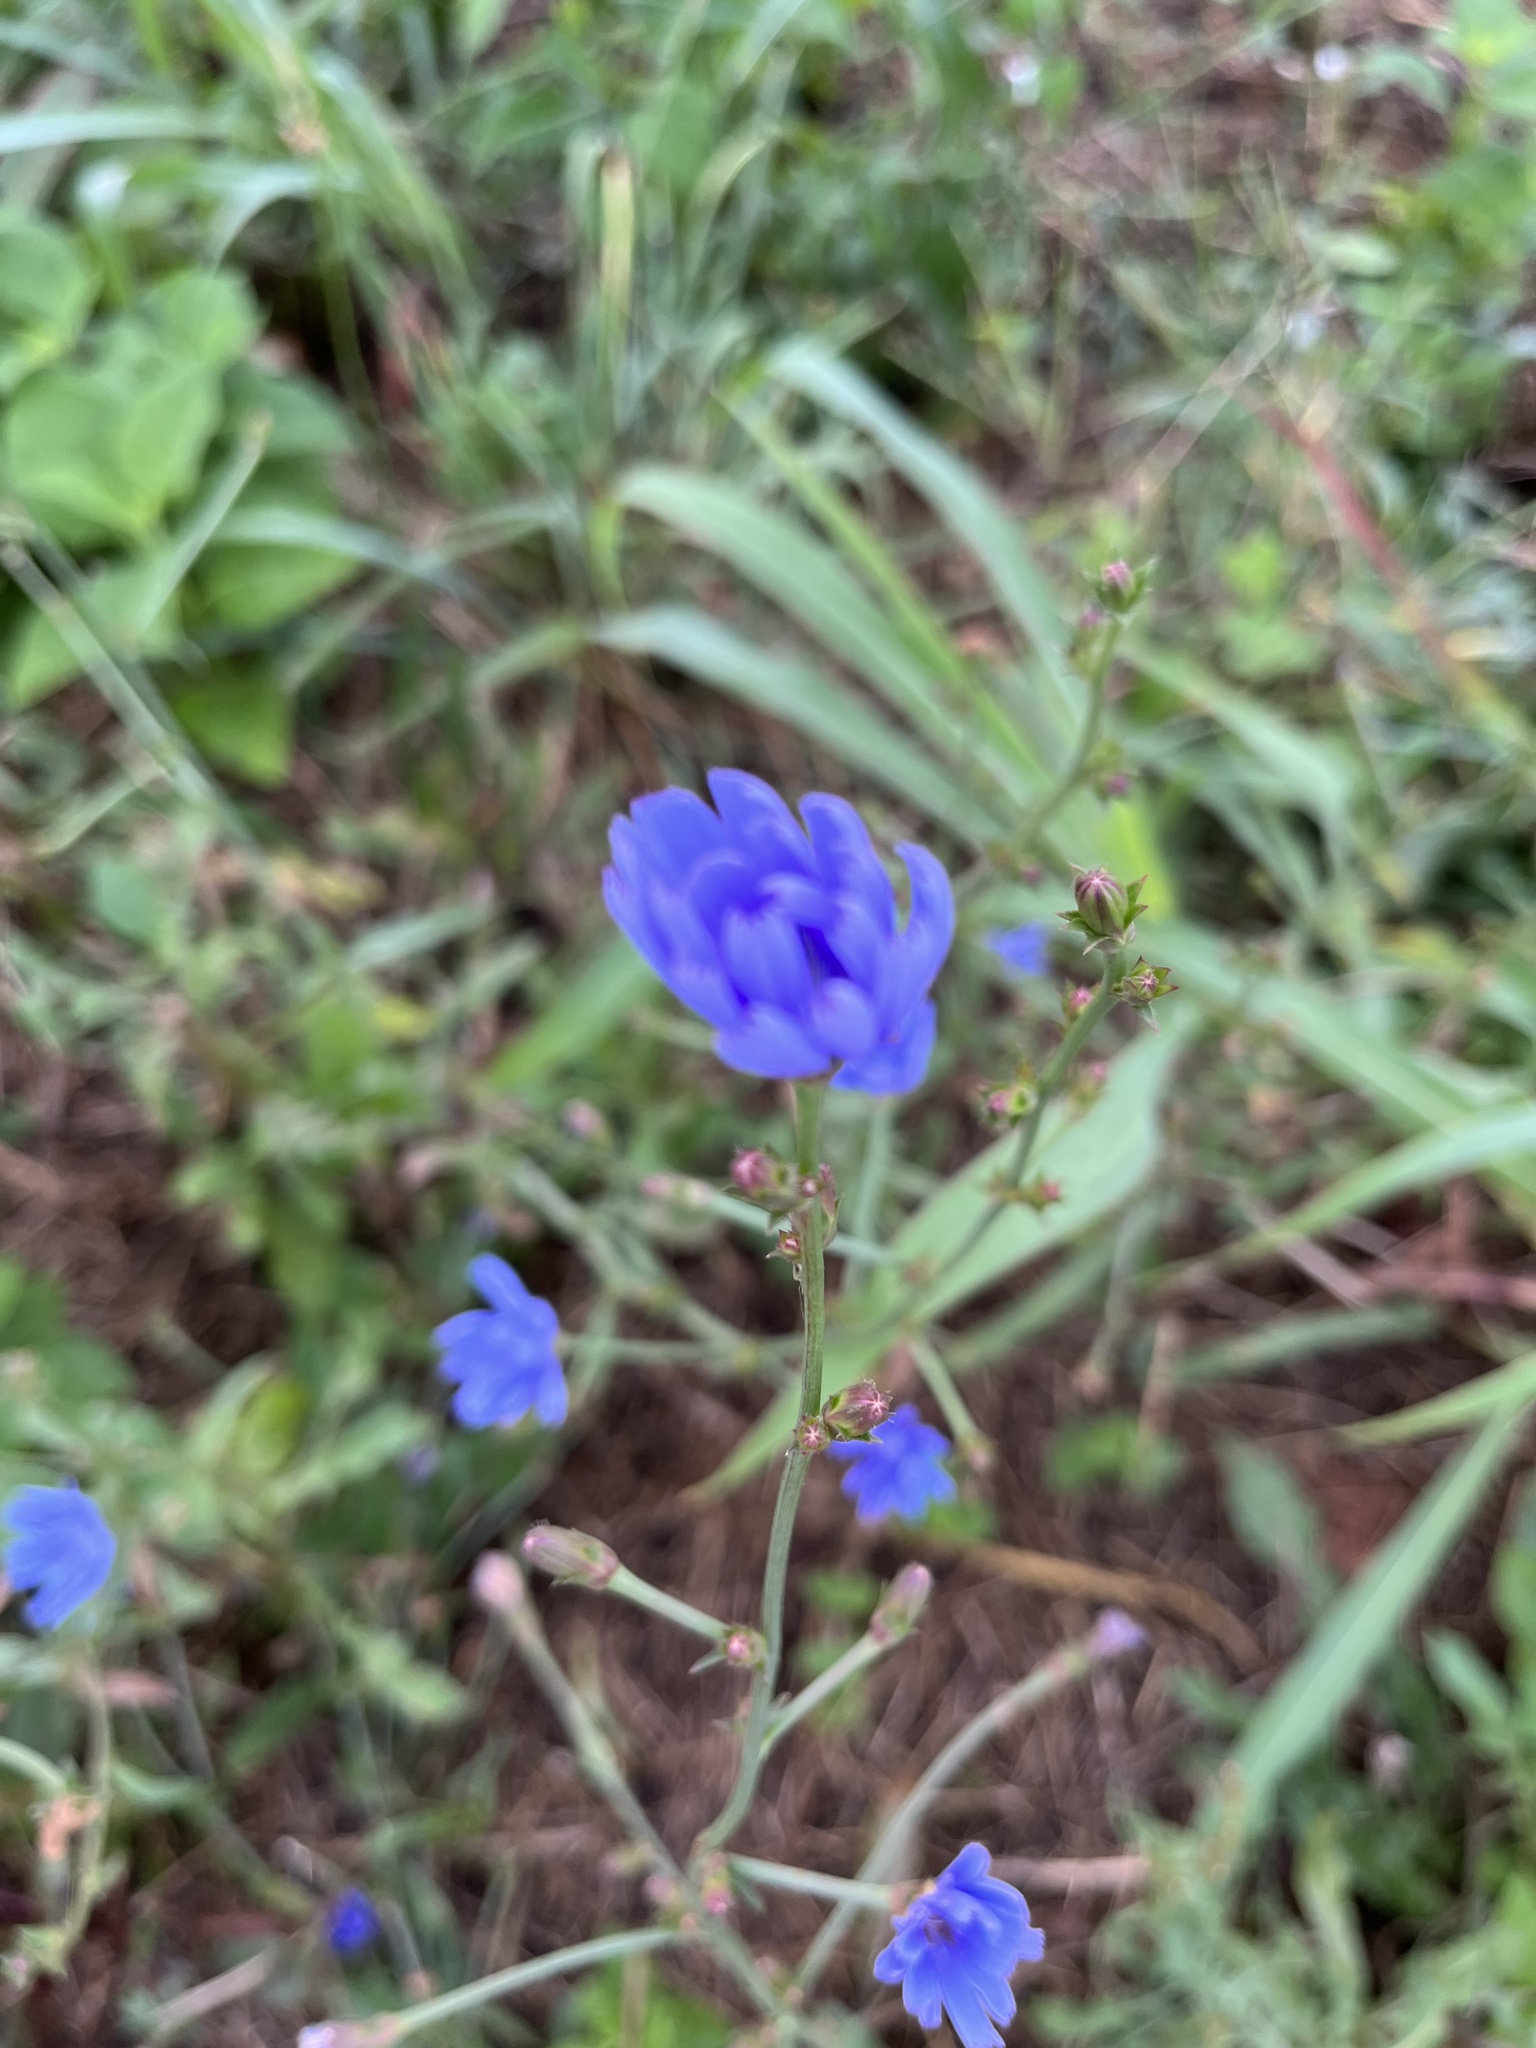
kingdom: Plantae
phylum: Tracheophyta
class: Magnoliopsida
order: Asterales
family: Asteraceae
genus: Cichorium
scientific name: Cichorium intybus
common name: Chicory
